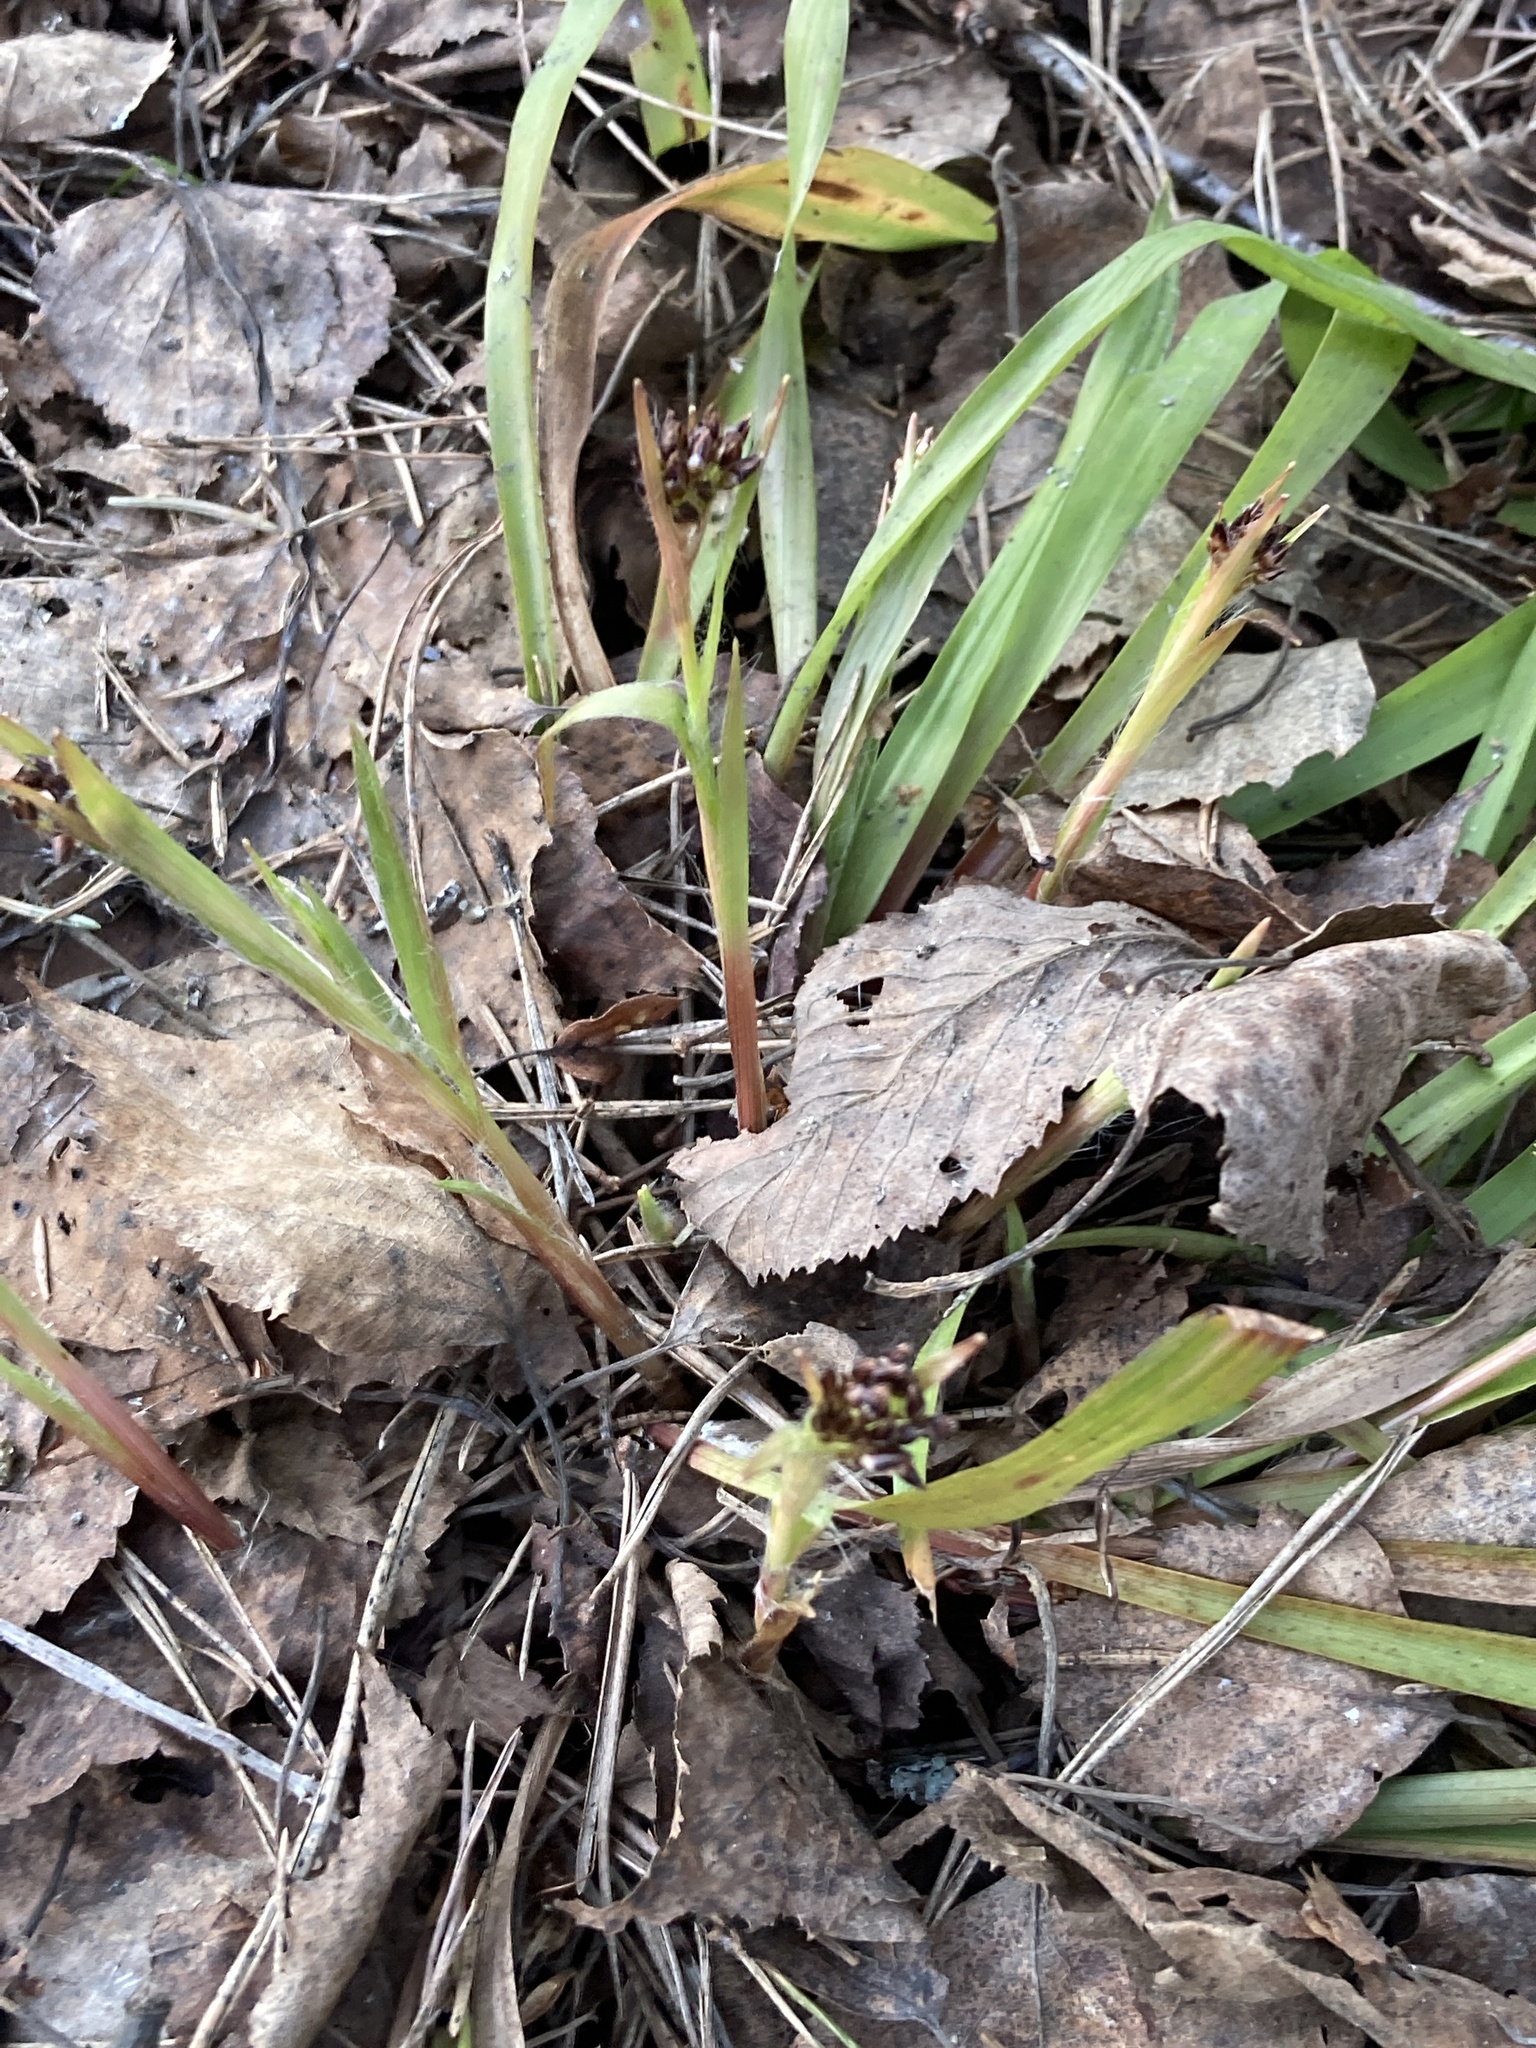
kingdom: Plantae
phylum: Tracheophyta
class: Liliopsida
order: Poales
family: Juncaceae
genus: Luzula
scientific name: Luzula pilosa
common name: Hairy wood-rush
